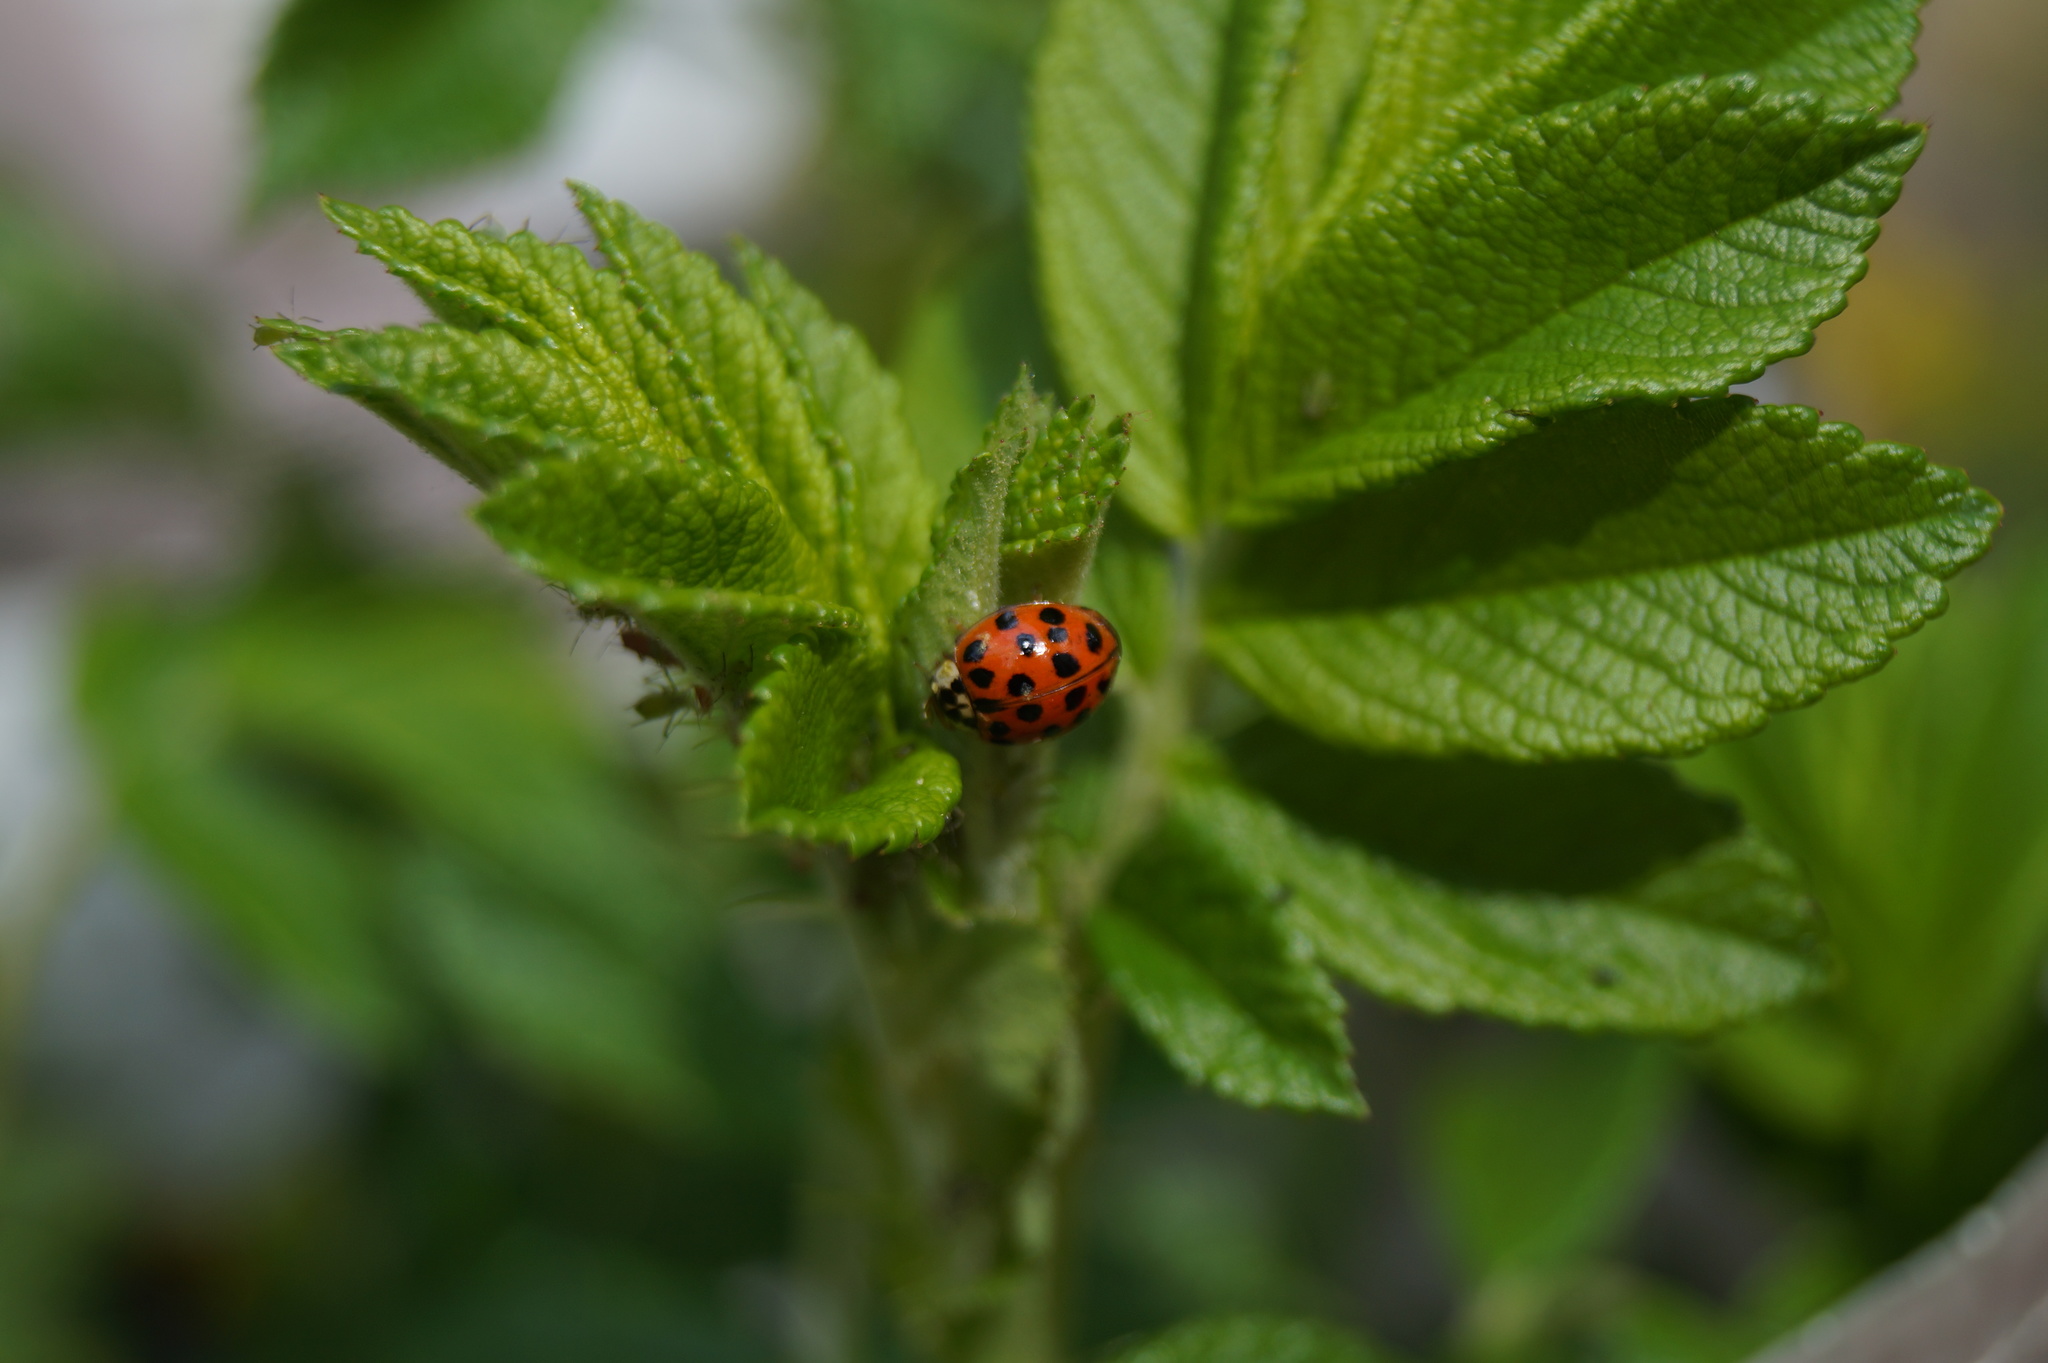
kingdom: Animalia
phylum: Arthropoda
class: Insecta
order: Coleoptera
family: Coccinellidae
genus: Harmonia
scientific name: Harmonia axyridis
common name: Harlequin ladybird
